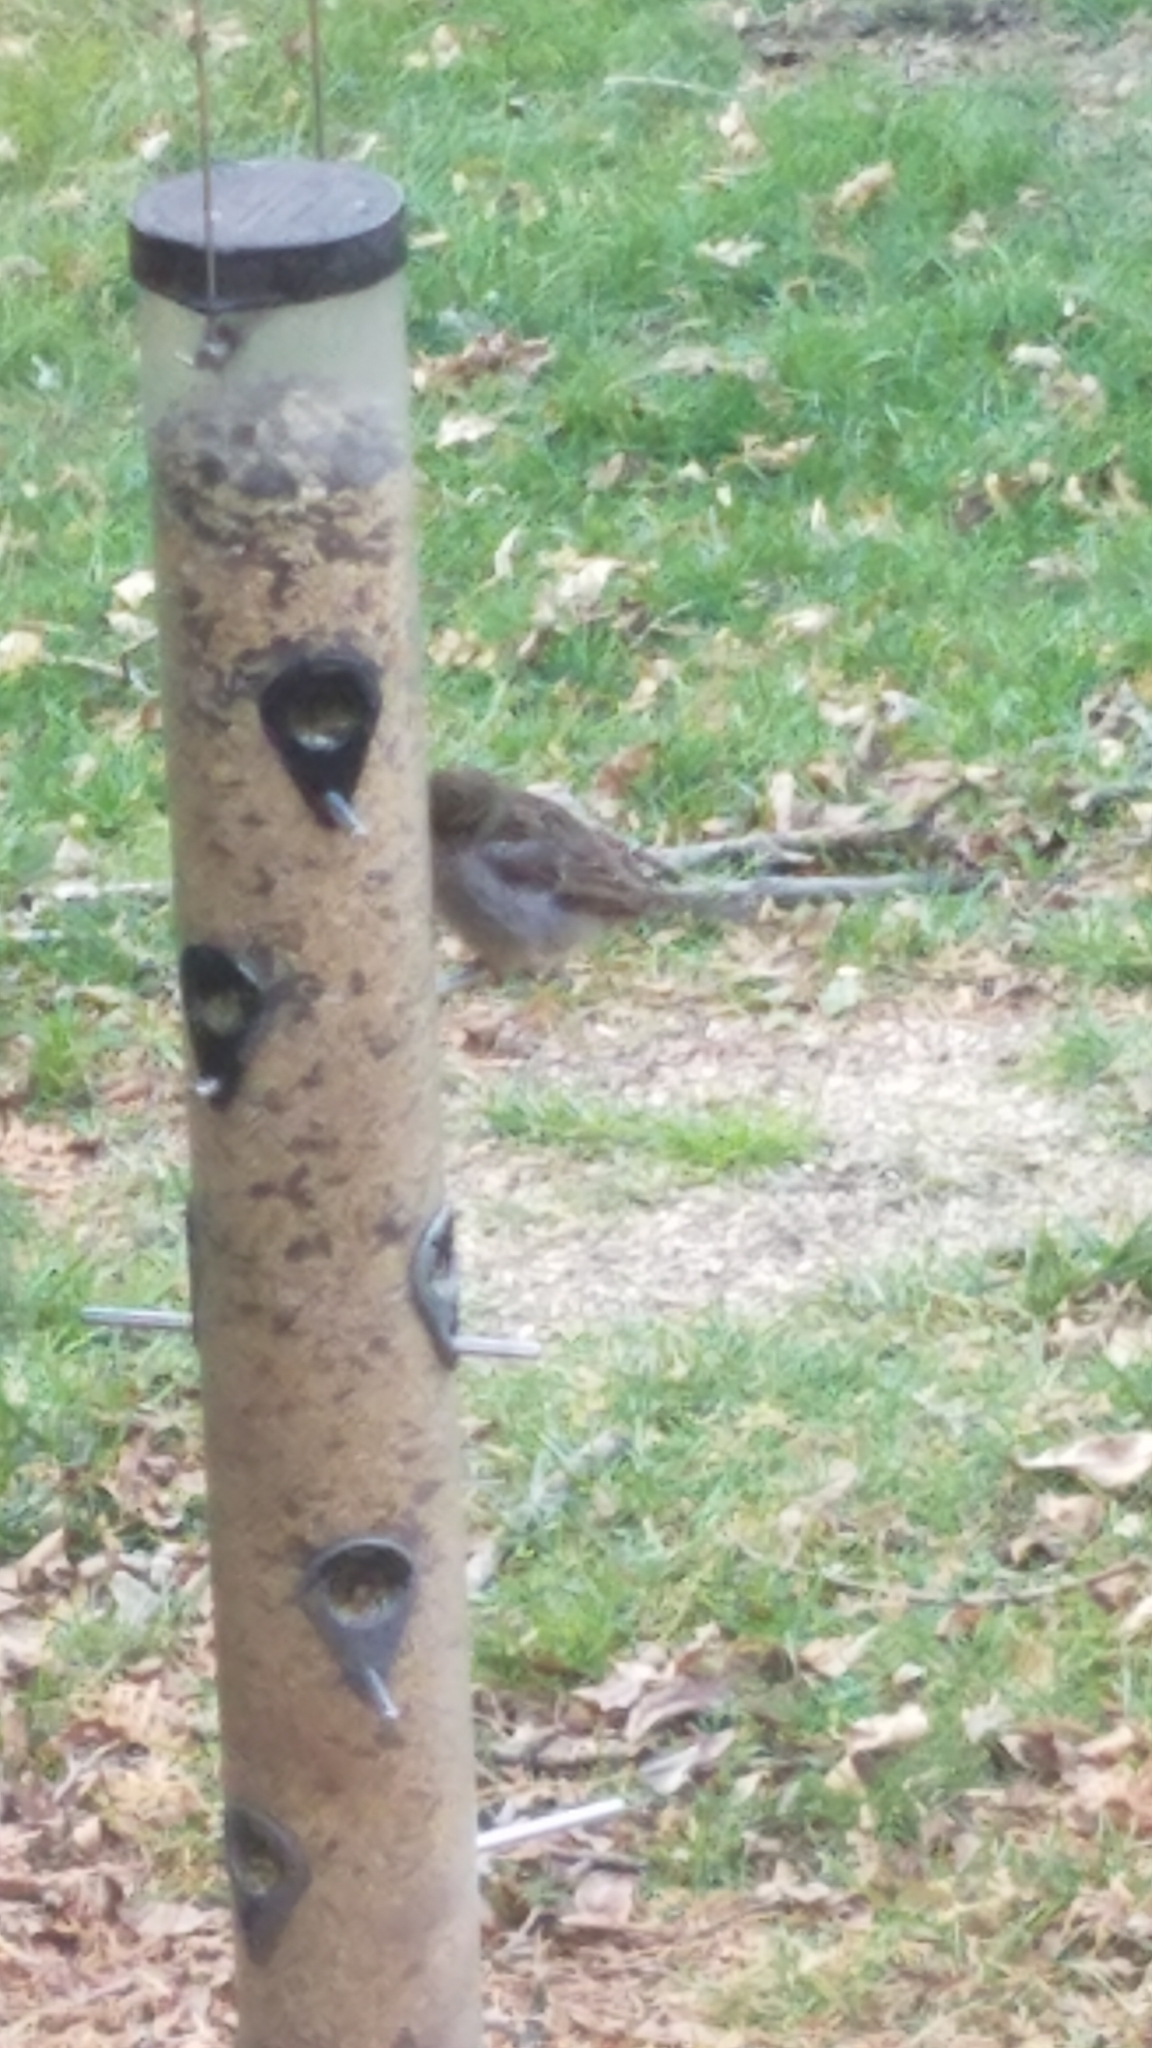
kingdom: Animalia
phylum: Chordata
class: Aves
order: Passeriformes
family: Passeridae
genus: Passer
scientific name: Passer domesticus
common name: House sparrow
